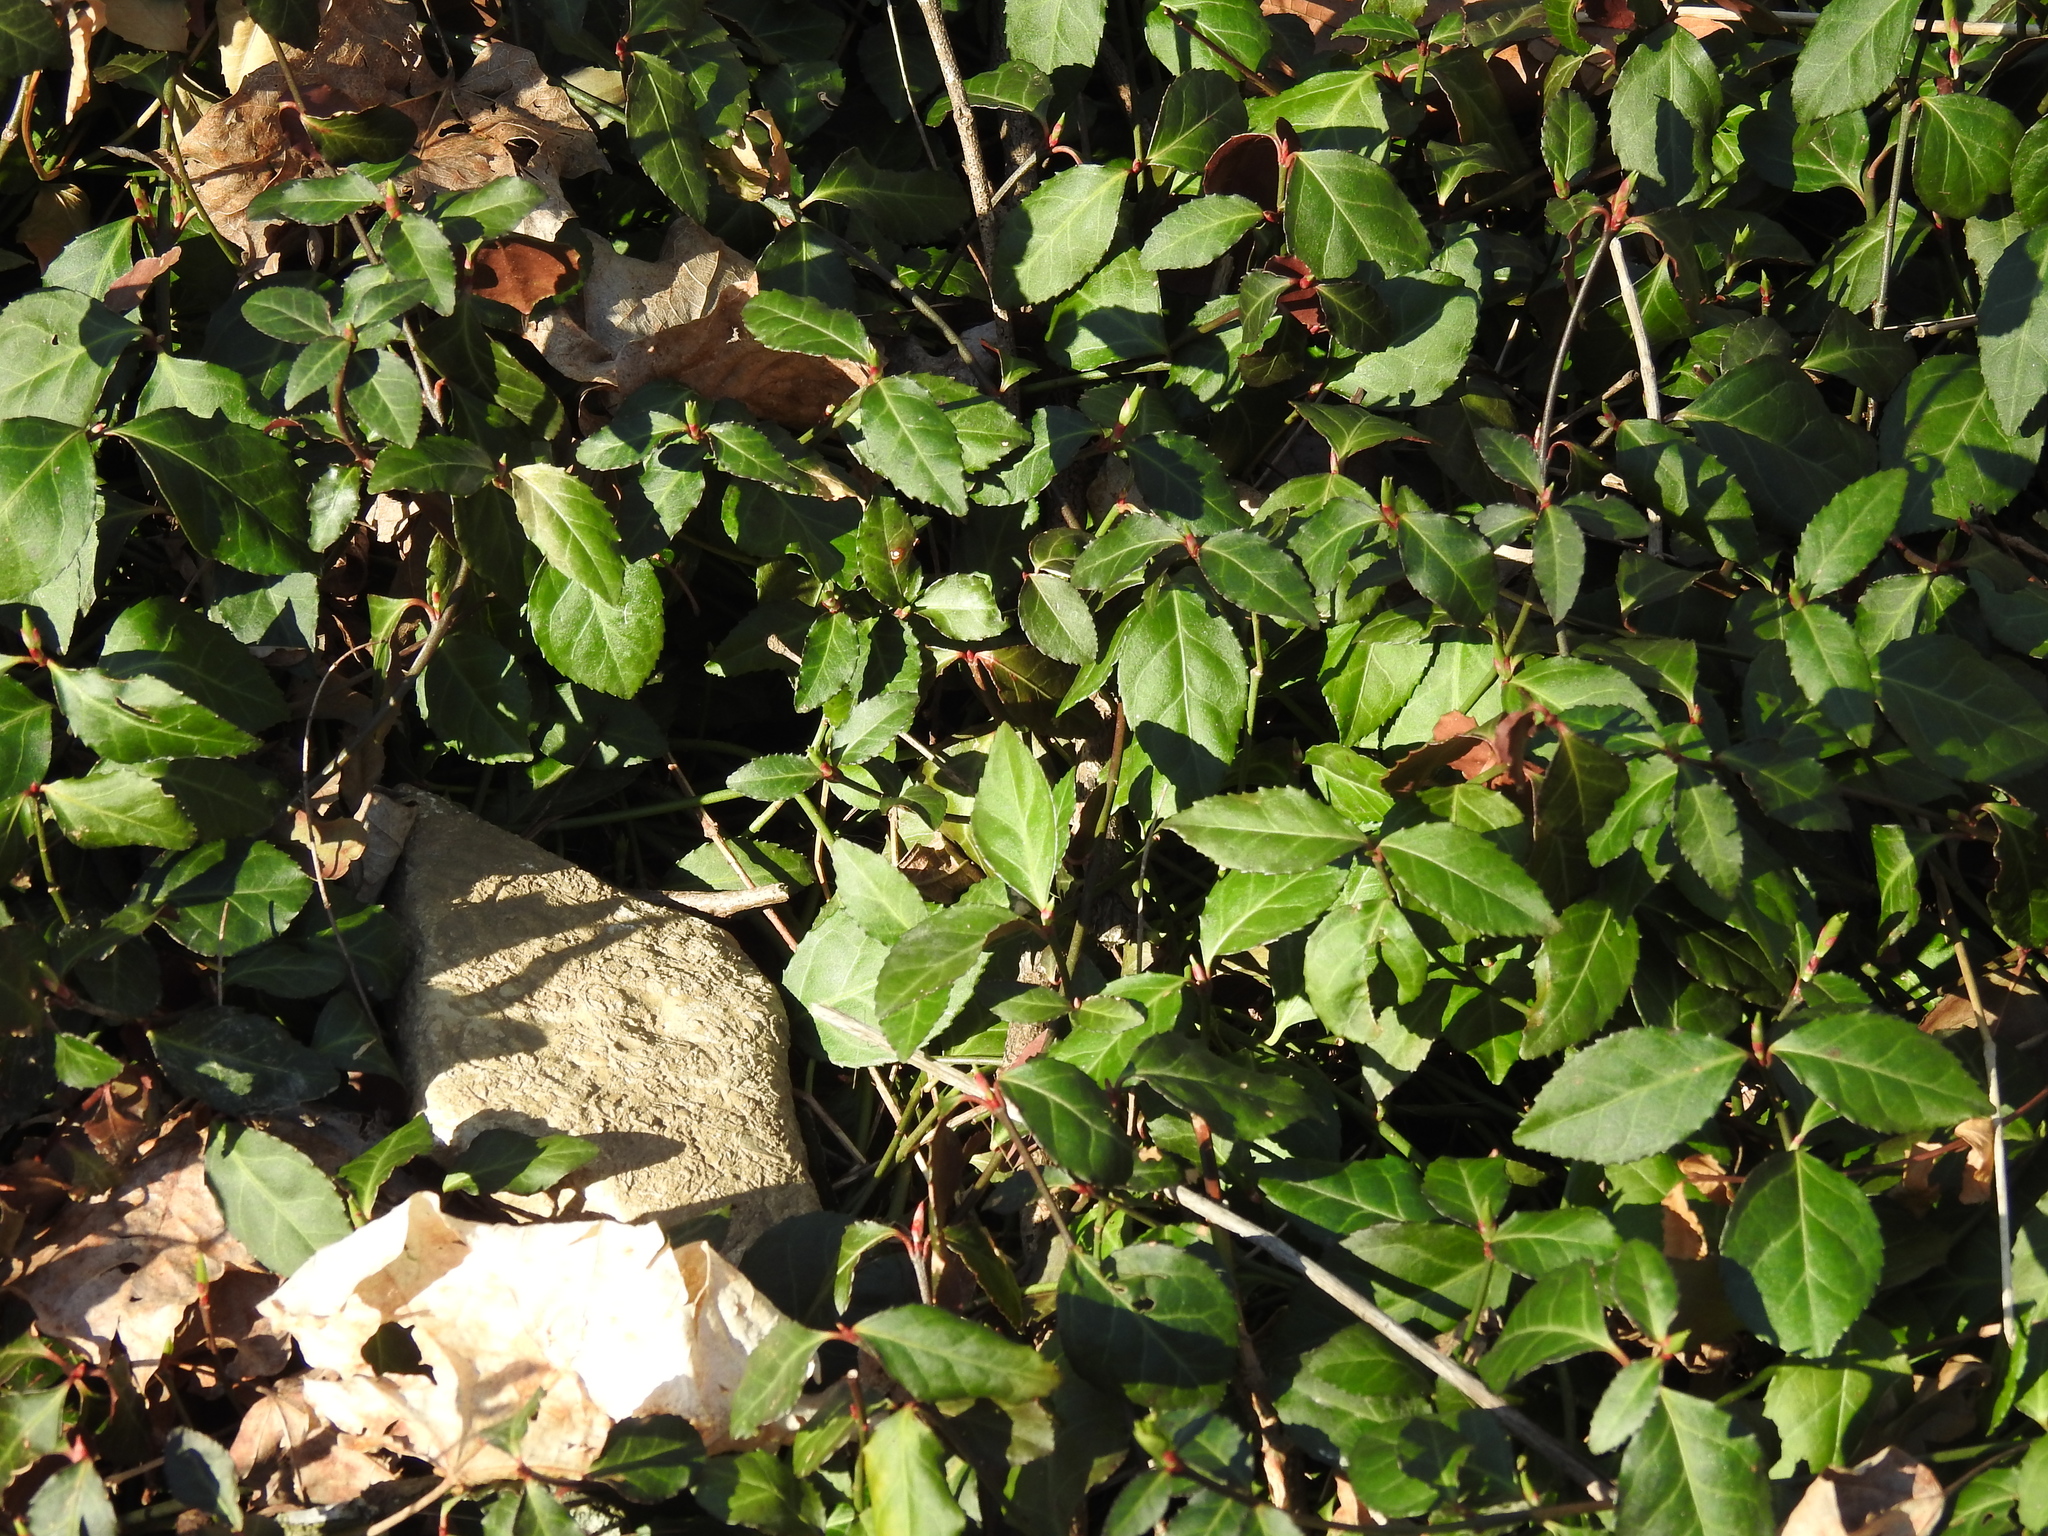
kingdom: Plantae
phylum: Tracheophyta
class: Magnoliopsida
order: Celastrales
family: Celastraceae
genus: Euonymus
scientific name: Euonymus fortunei
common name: Climbing euonymus
